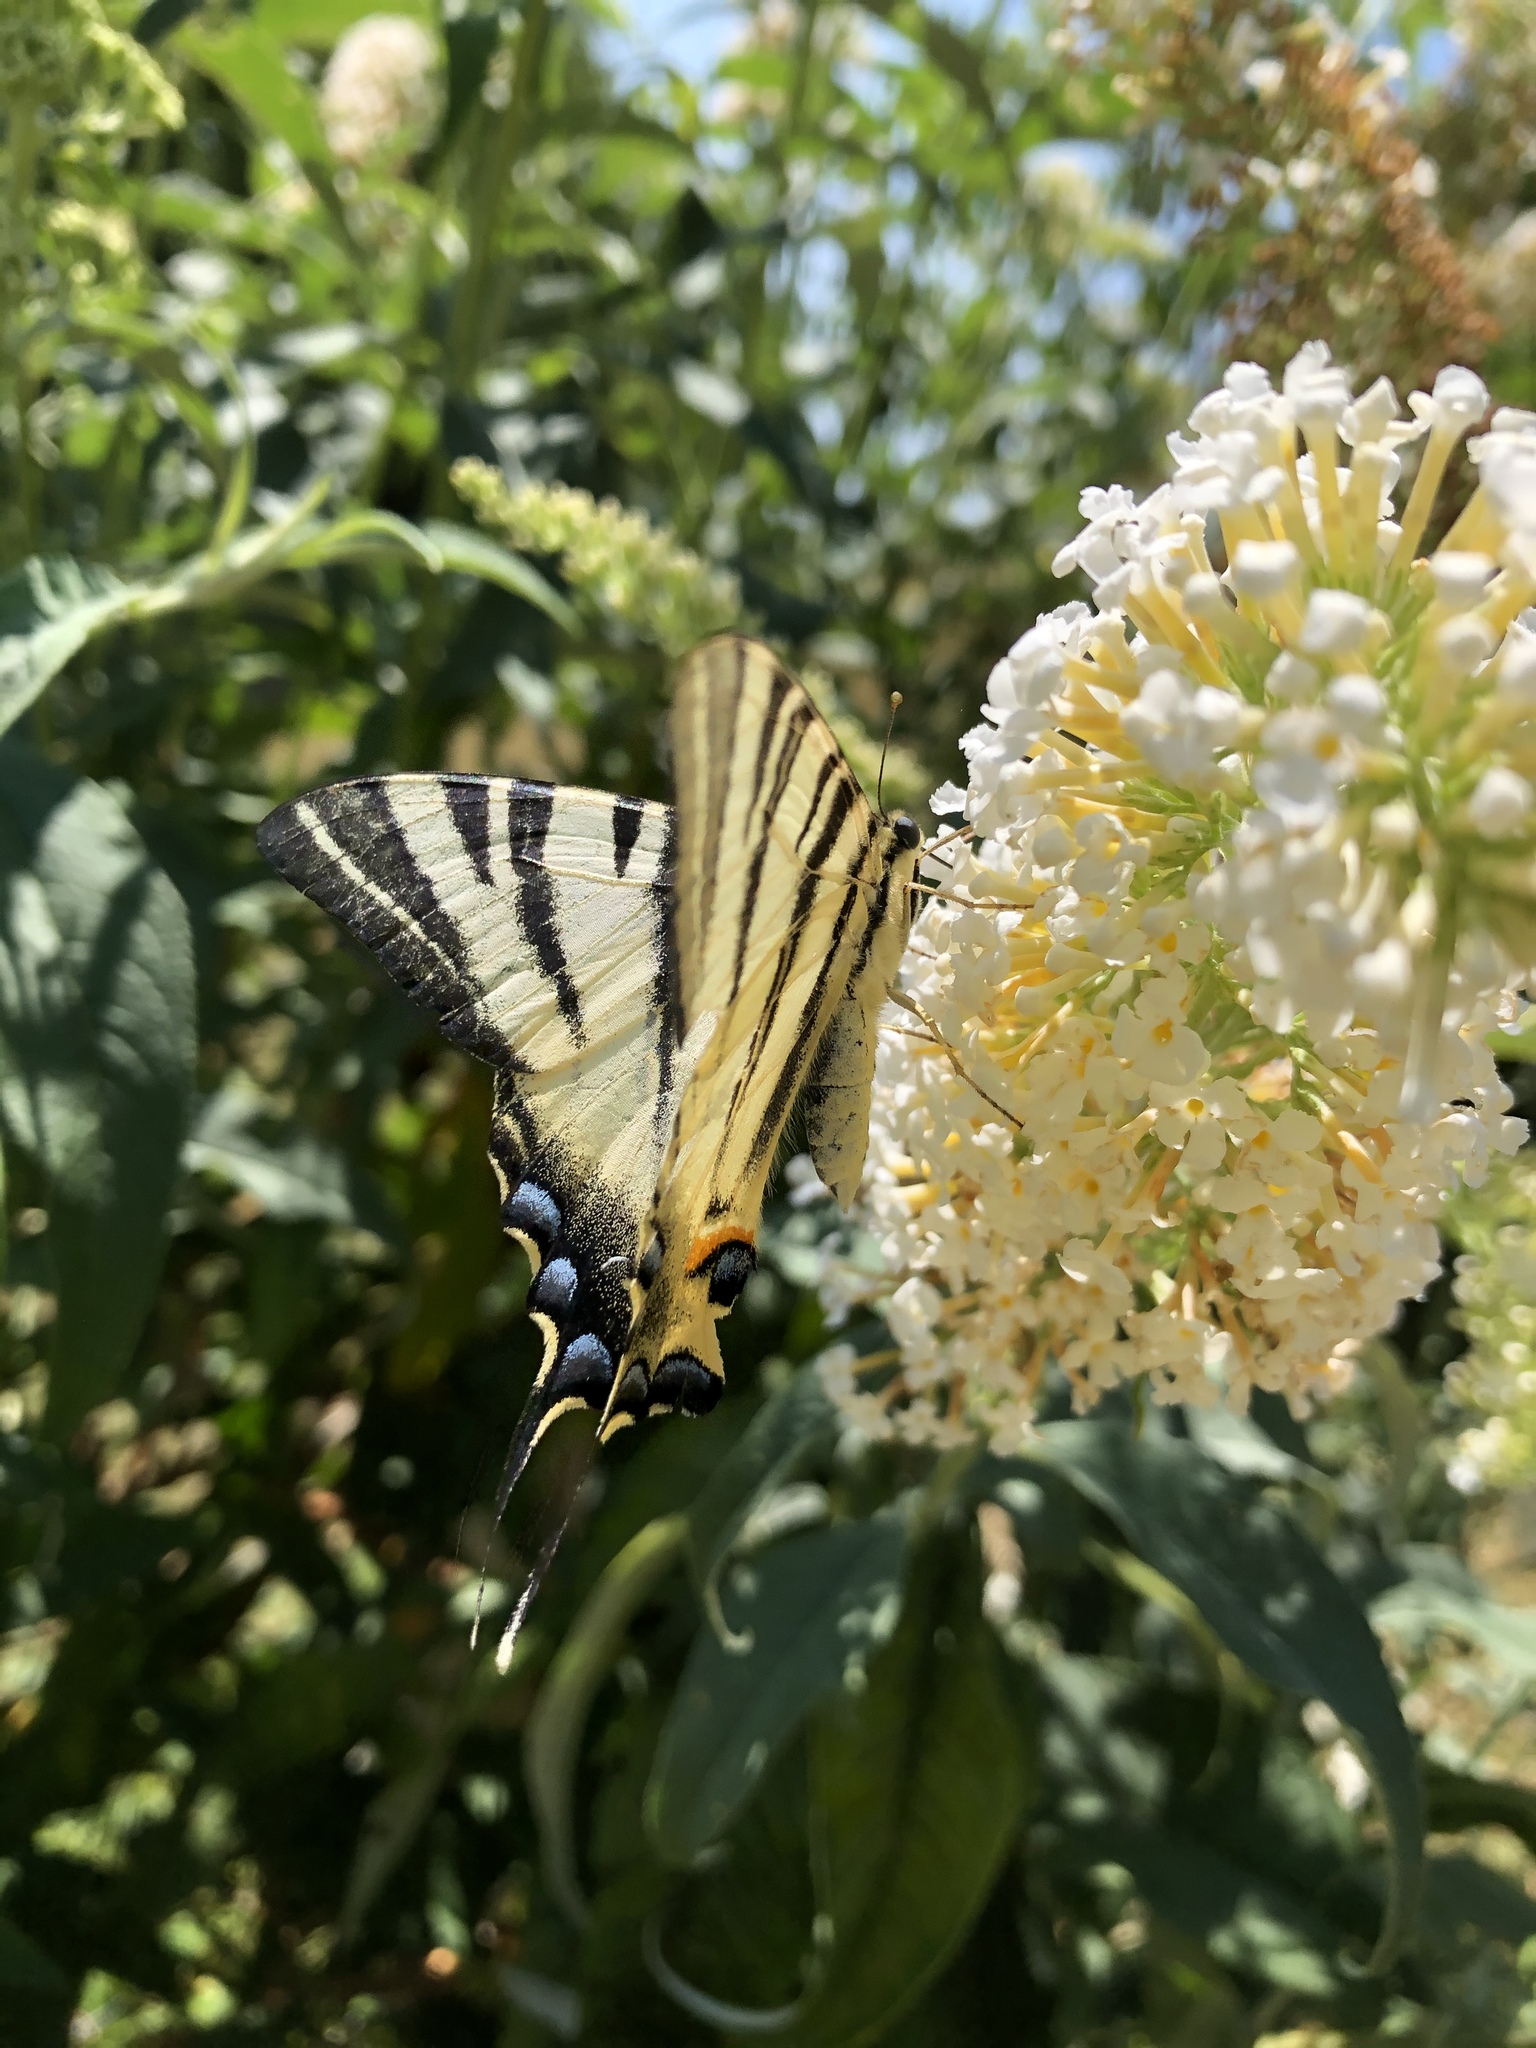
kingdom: Animalia
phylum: Arthropoda
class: Insecta
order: Lepidoptera
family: Papilionidae
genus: Iphiclides
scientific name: Iphiclides podalirius
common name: Scarce swallowtail
